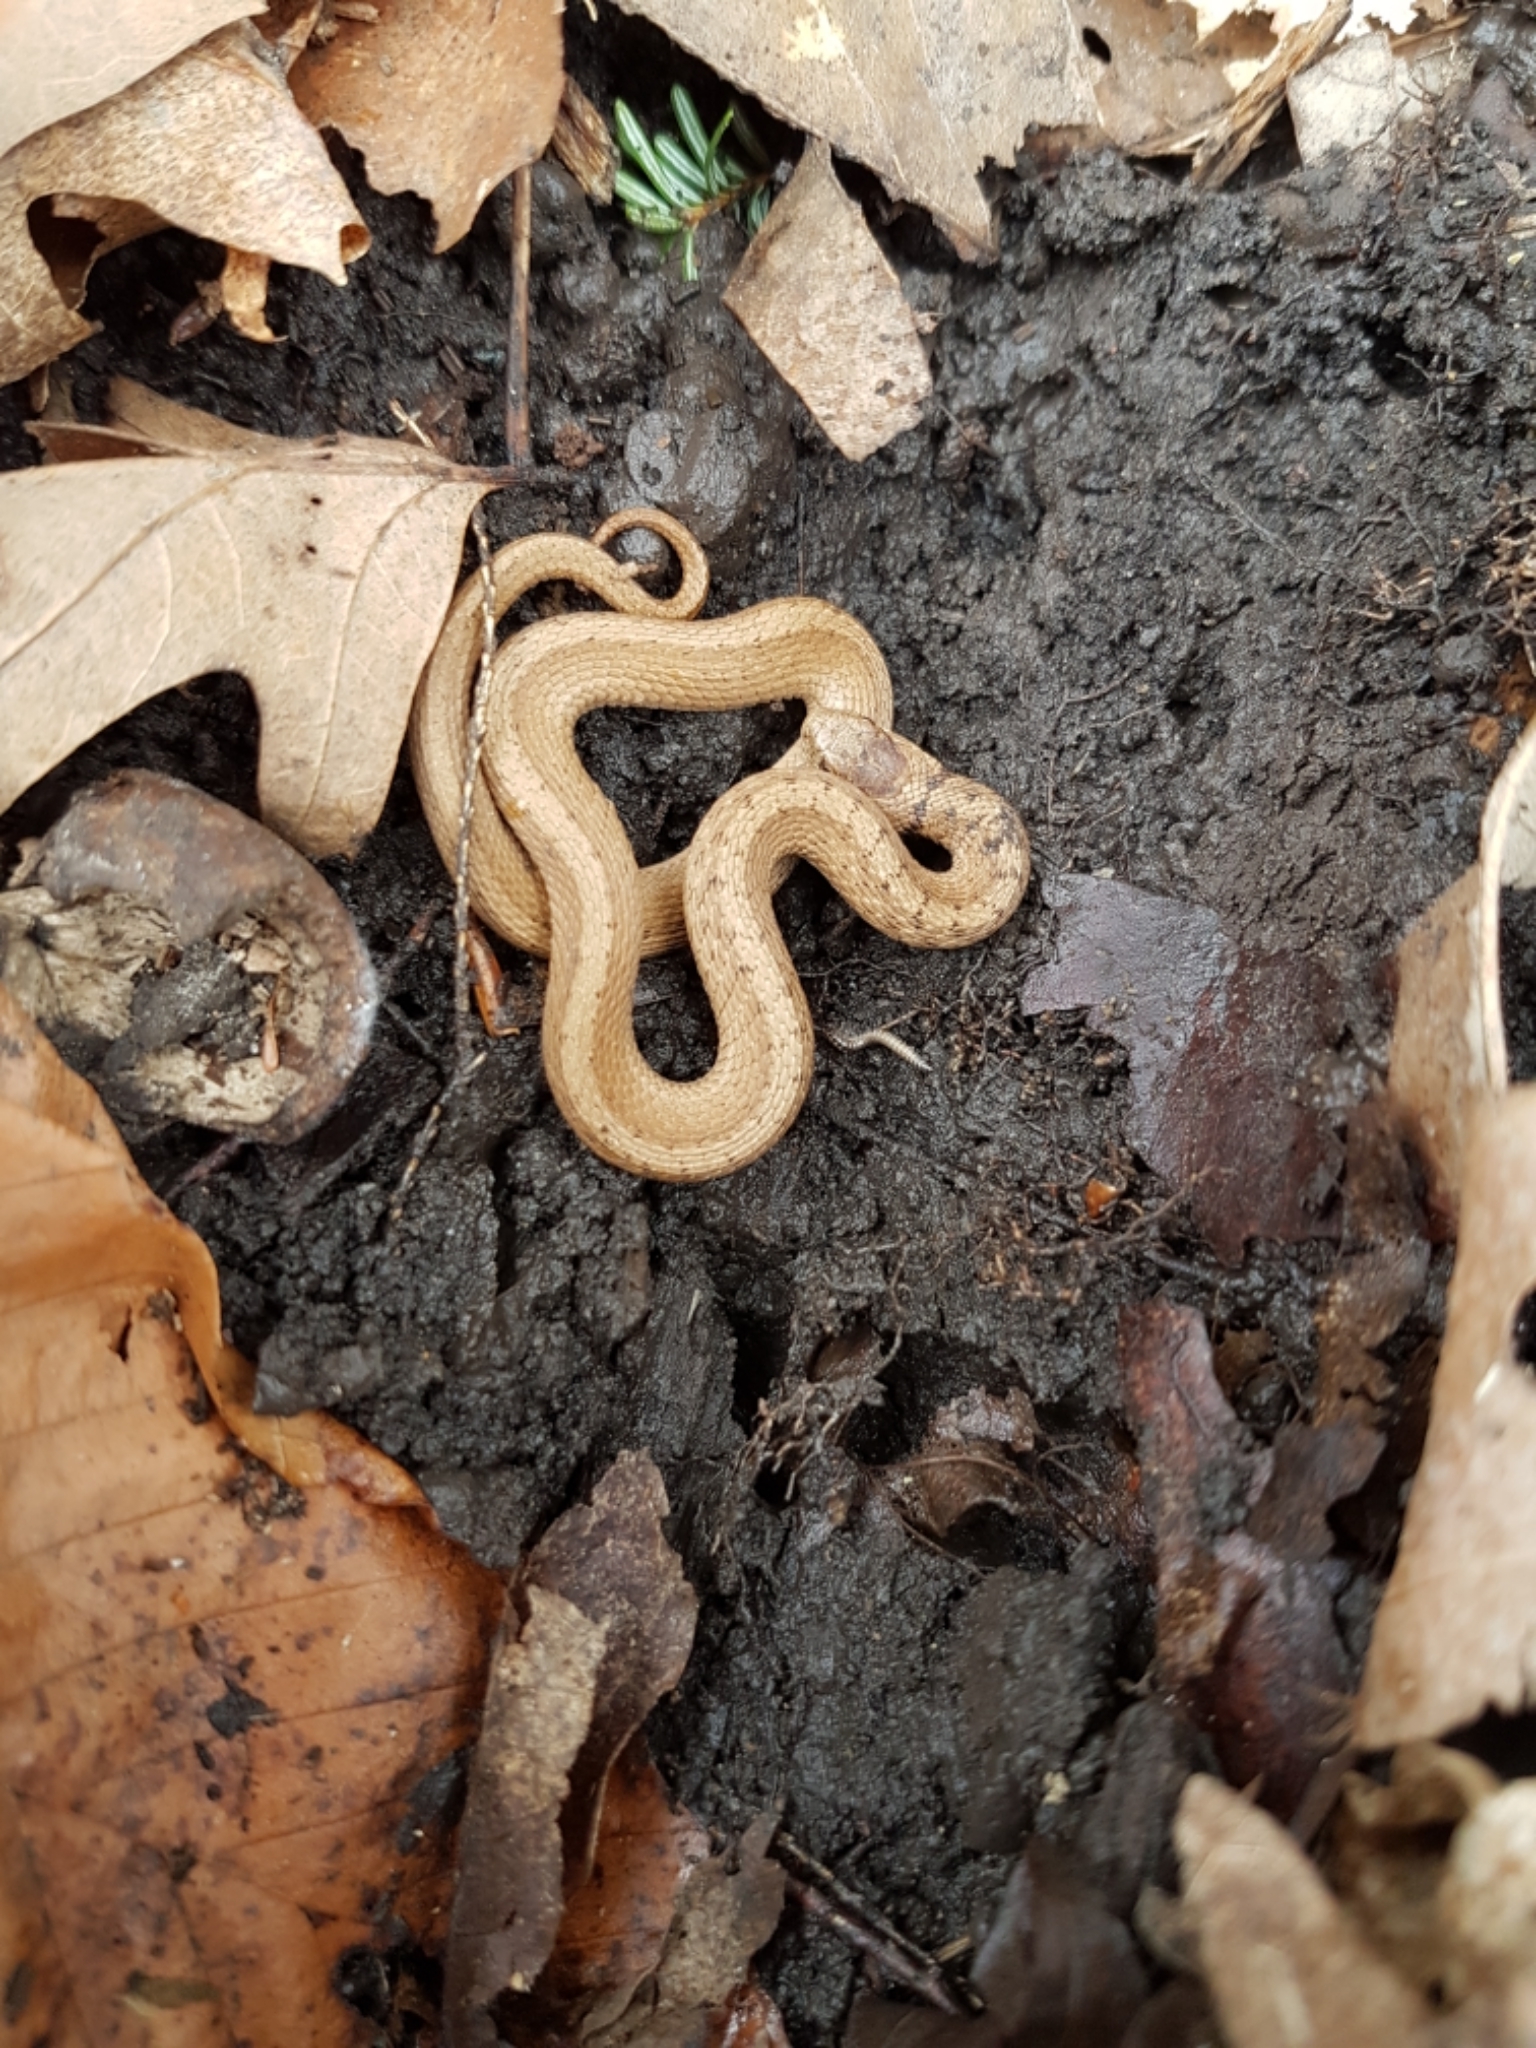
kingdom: Animalia
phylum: Chordata
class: Squamata
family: Colubridae
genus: Storeria
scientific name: Storeria dekayi
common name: (dekay’s) brown snake
